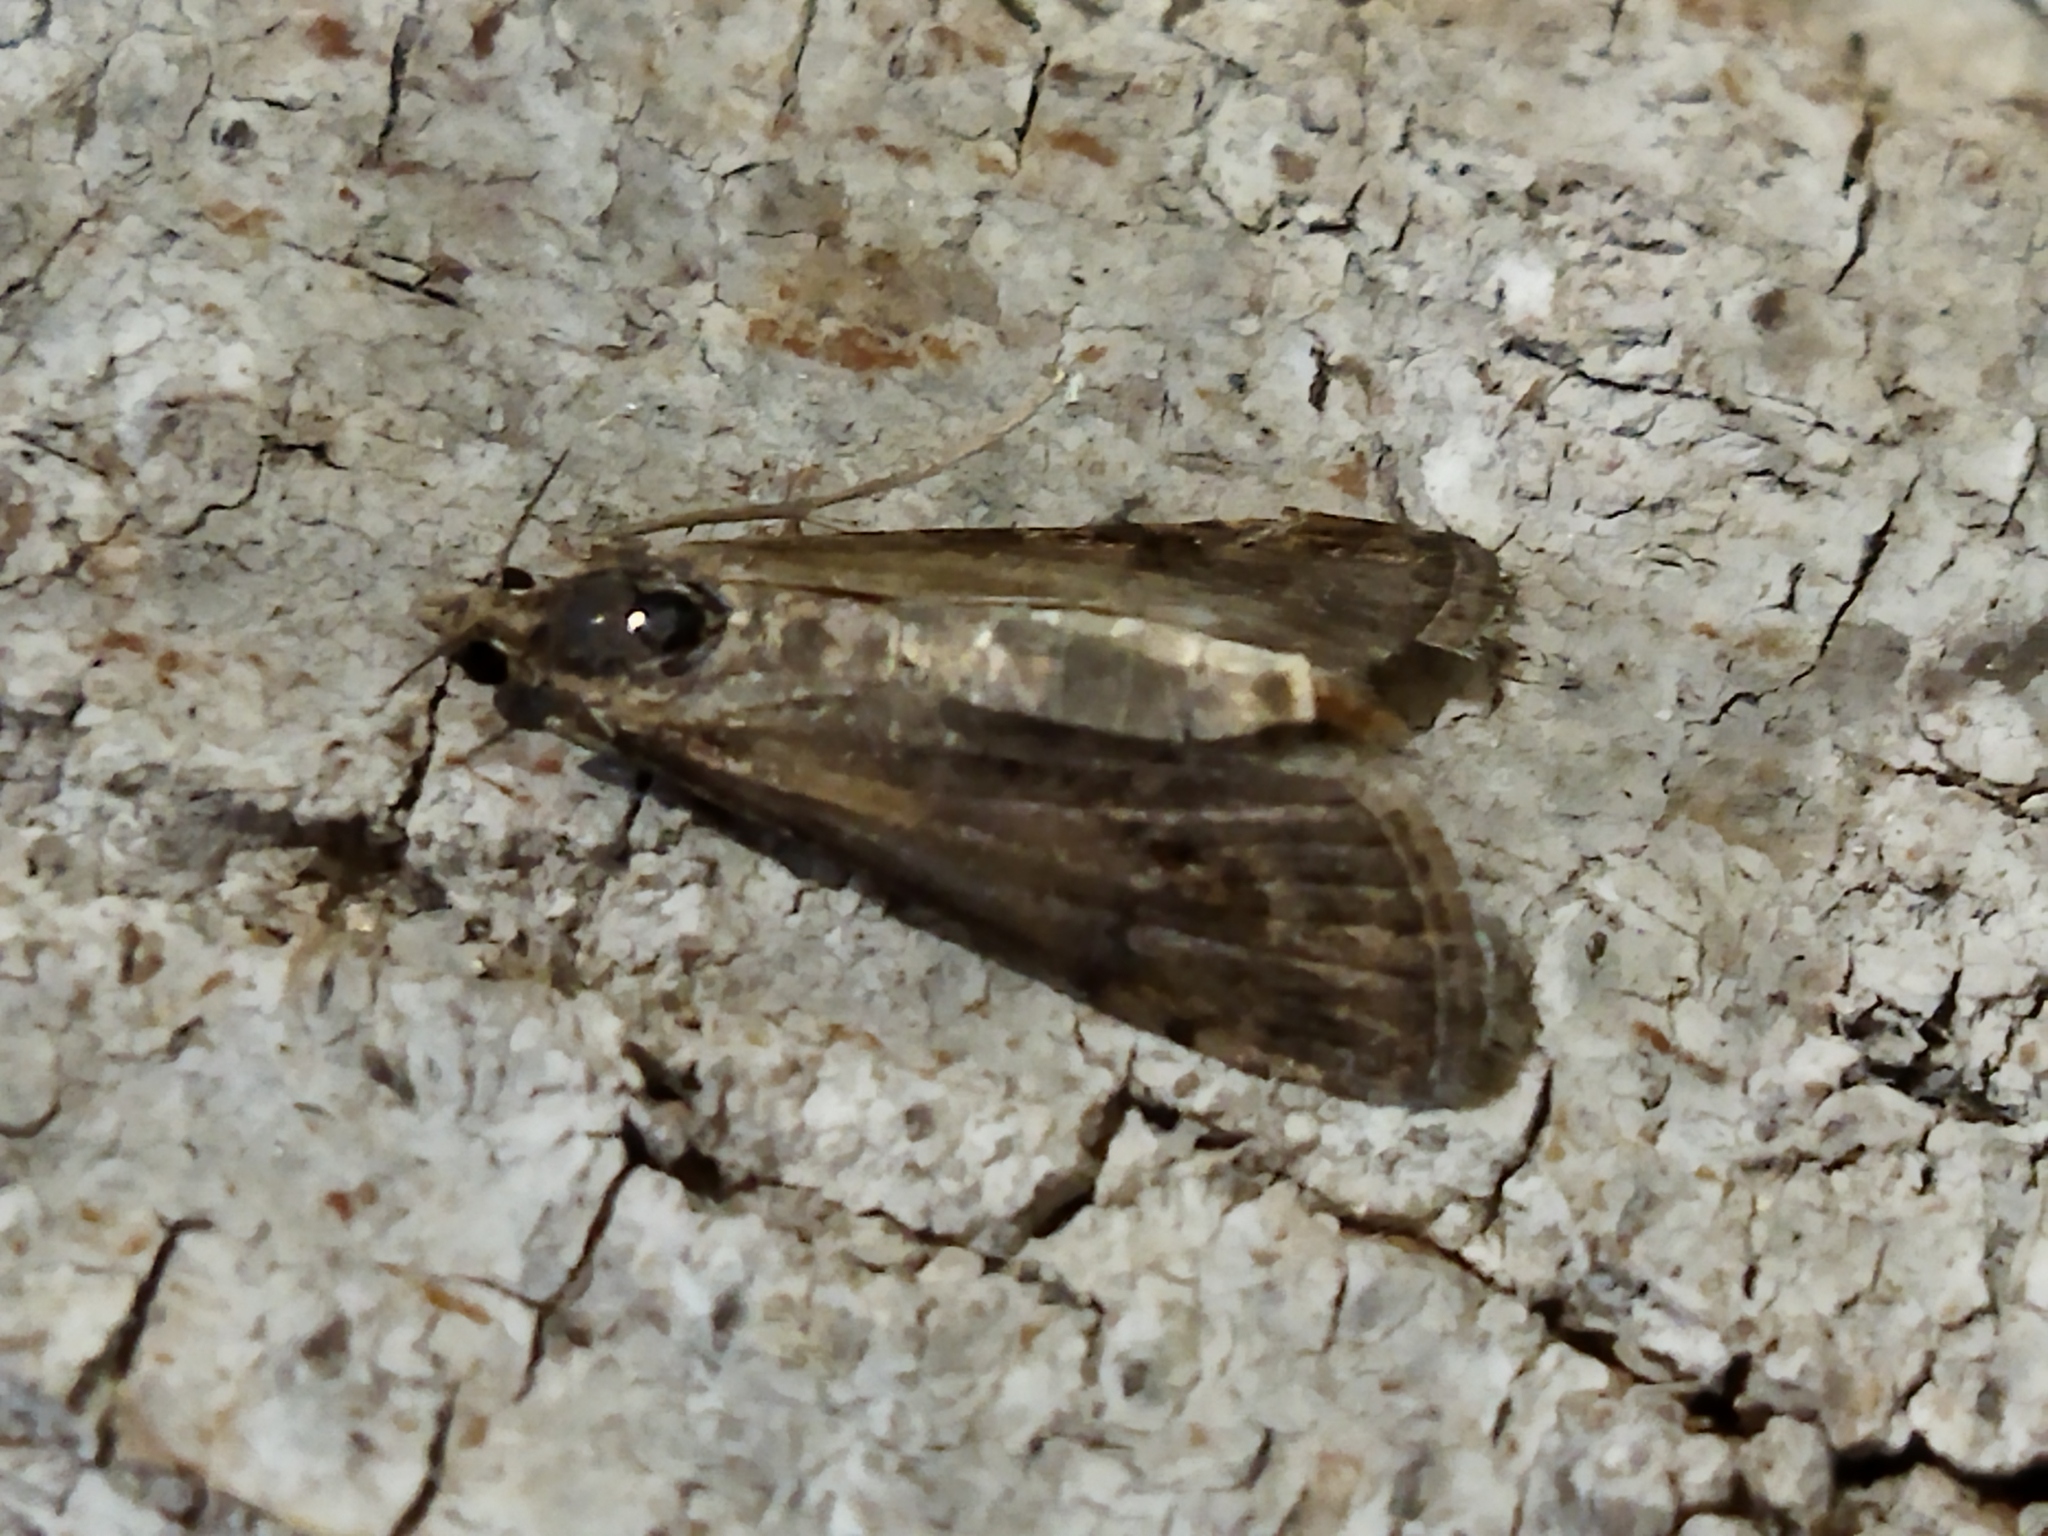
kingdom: Animalia
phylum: Arthropoda
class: Insecta
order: Lepidoptera
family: Crambidae
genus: Nomophila
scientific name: Nomophila noctuella
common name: Rush veneer
